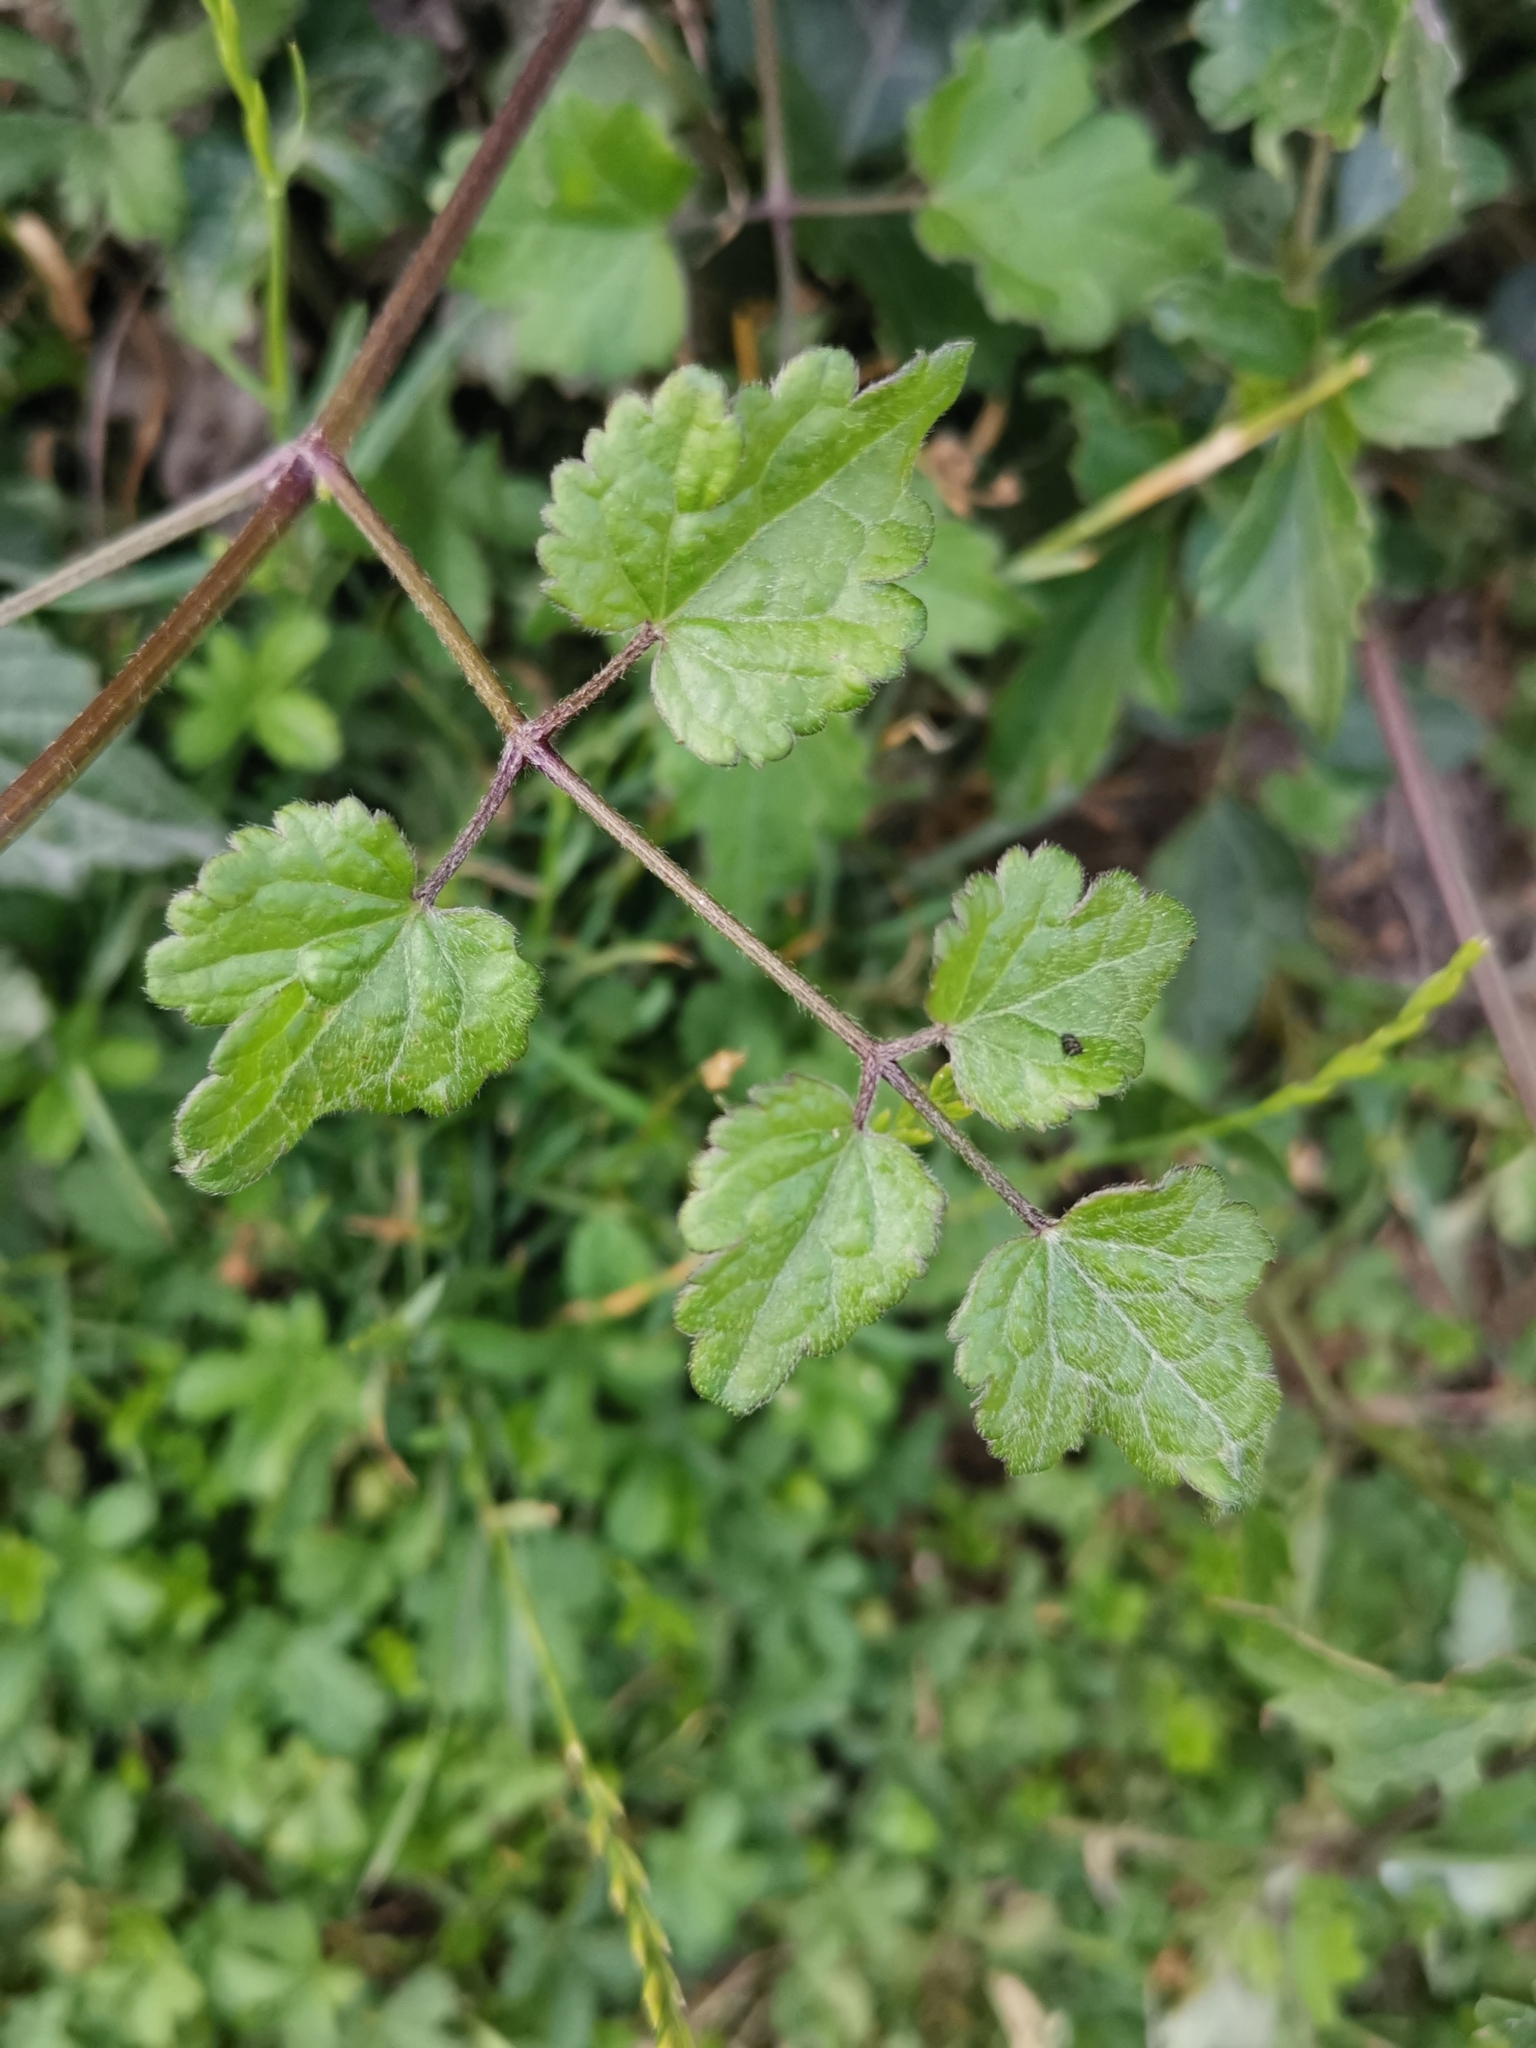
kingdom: Plantae
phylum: Tracheophyta
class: Magnoliopsida
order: Ranunculales
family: Ranunculaceae
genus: Clematis
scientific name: Clematis vitalba
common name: Evergreen clematis
